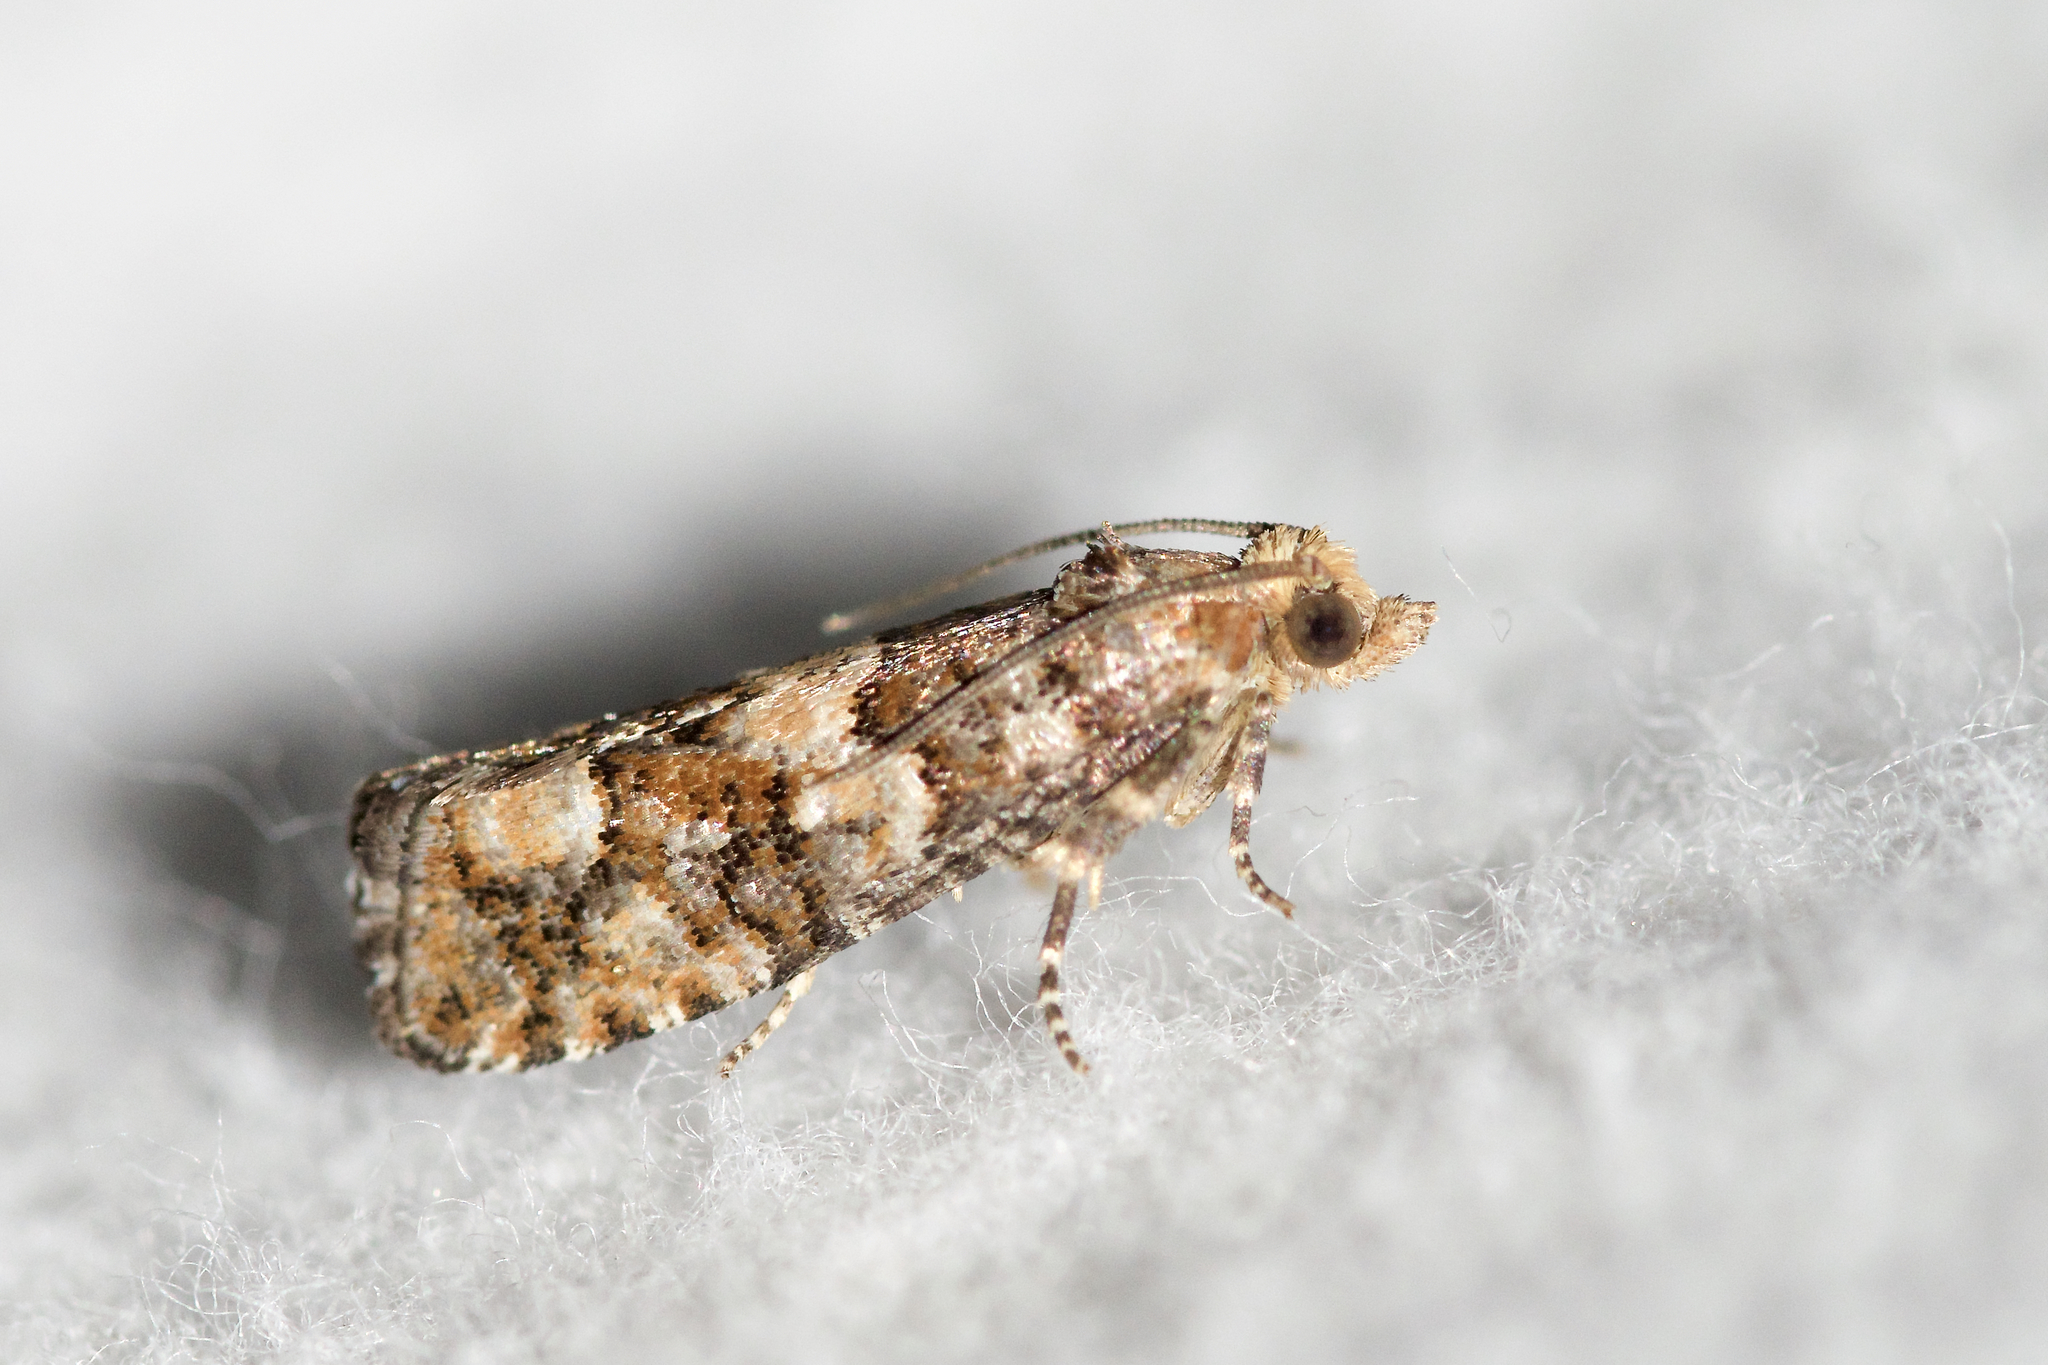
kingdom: Animalia
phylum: Arthropoda
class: Insecta
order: Lepidoptera
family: Tortricidae
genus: Eucopina
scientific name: Eucopina tocullionana
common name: White pinecone borer moth
